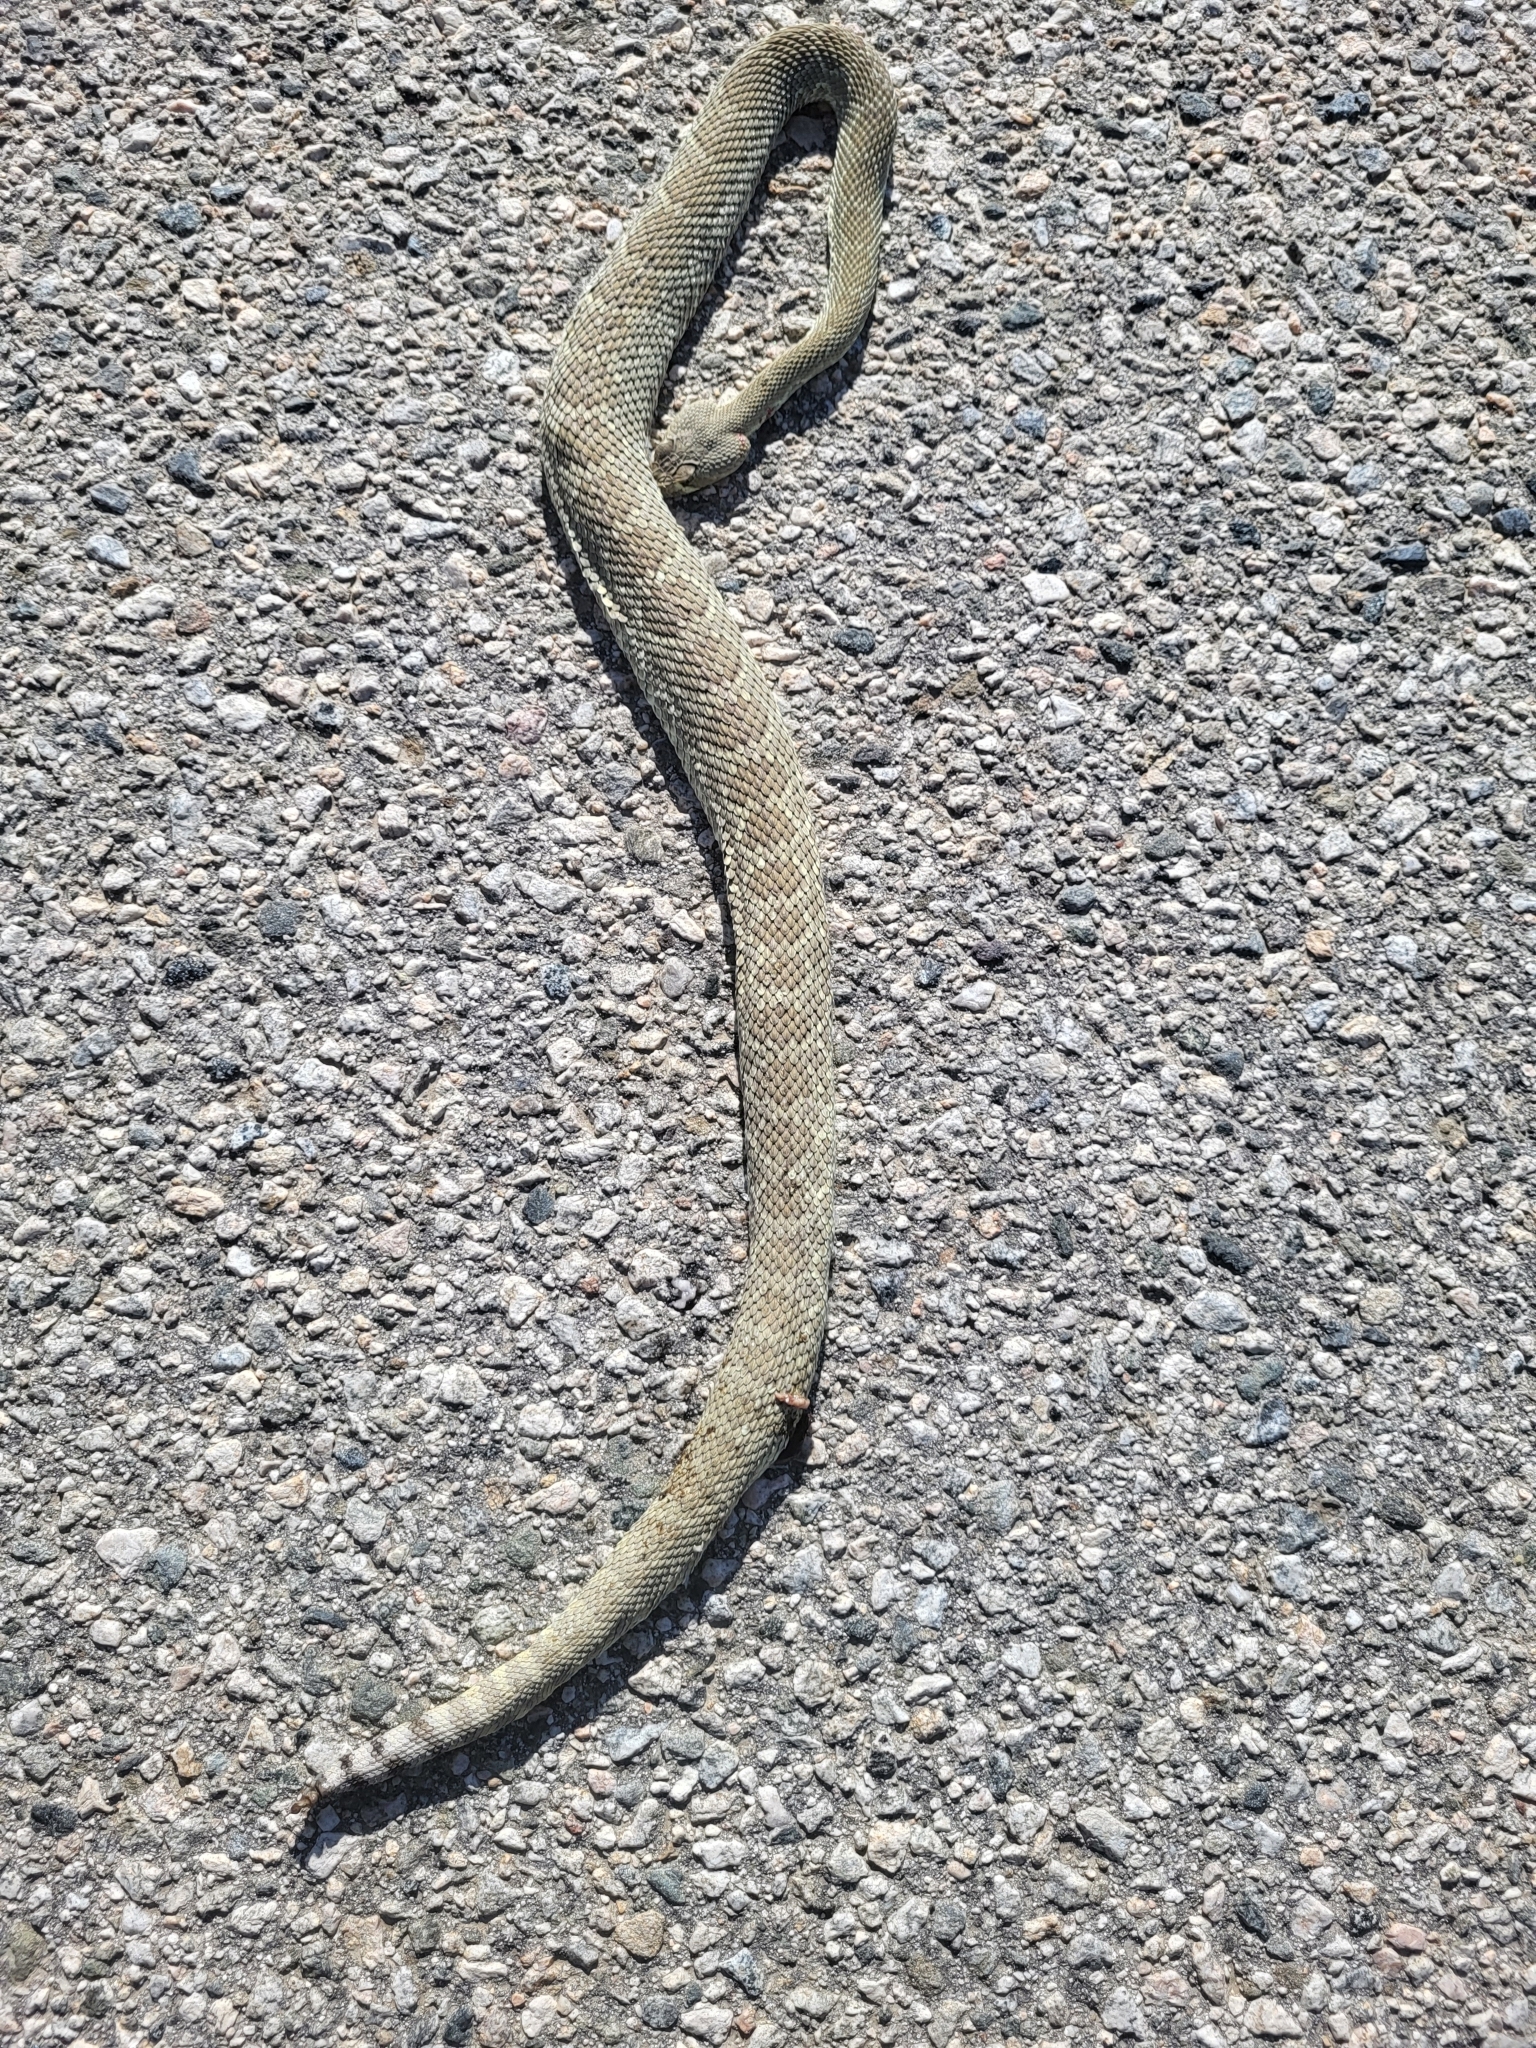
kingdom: Animalia
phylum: Chordata
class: Squamata
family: Viperidae
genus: Crotalus
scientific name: Crotalus scutulatus
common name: Scutulatus
